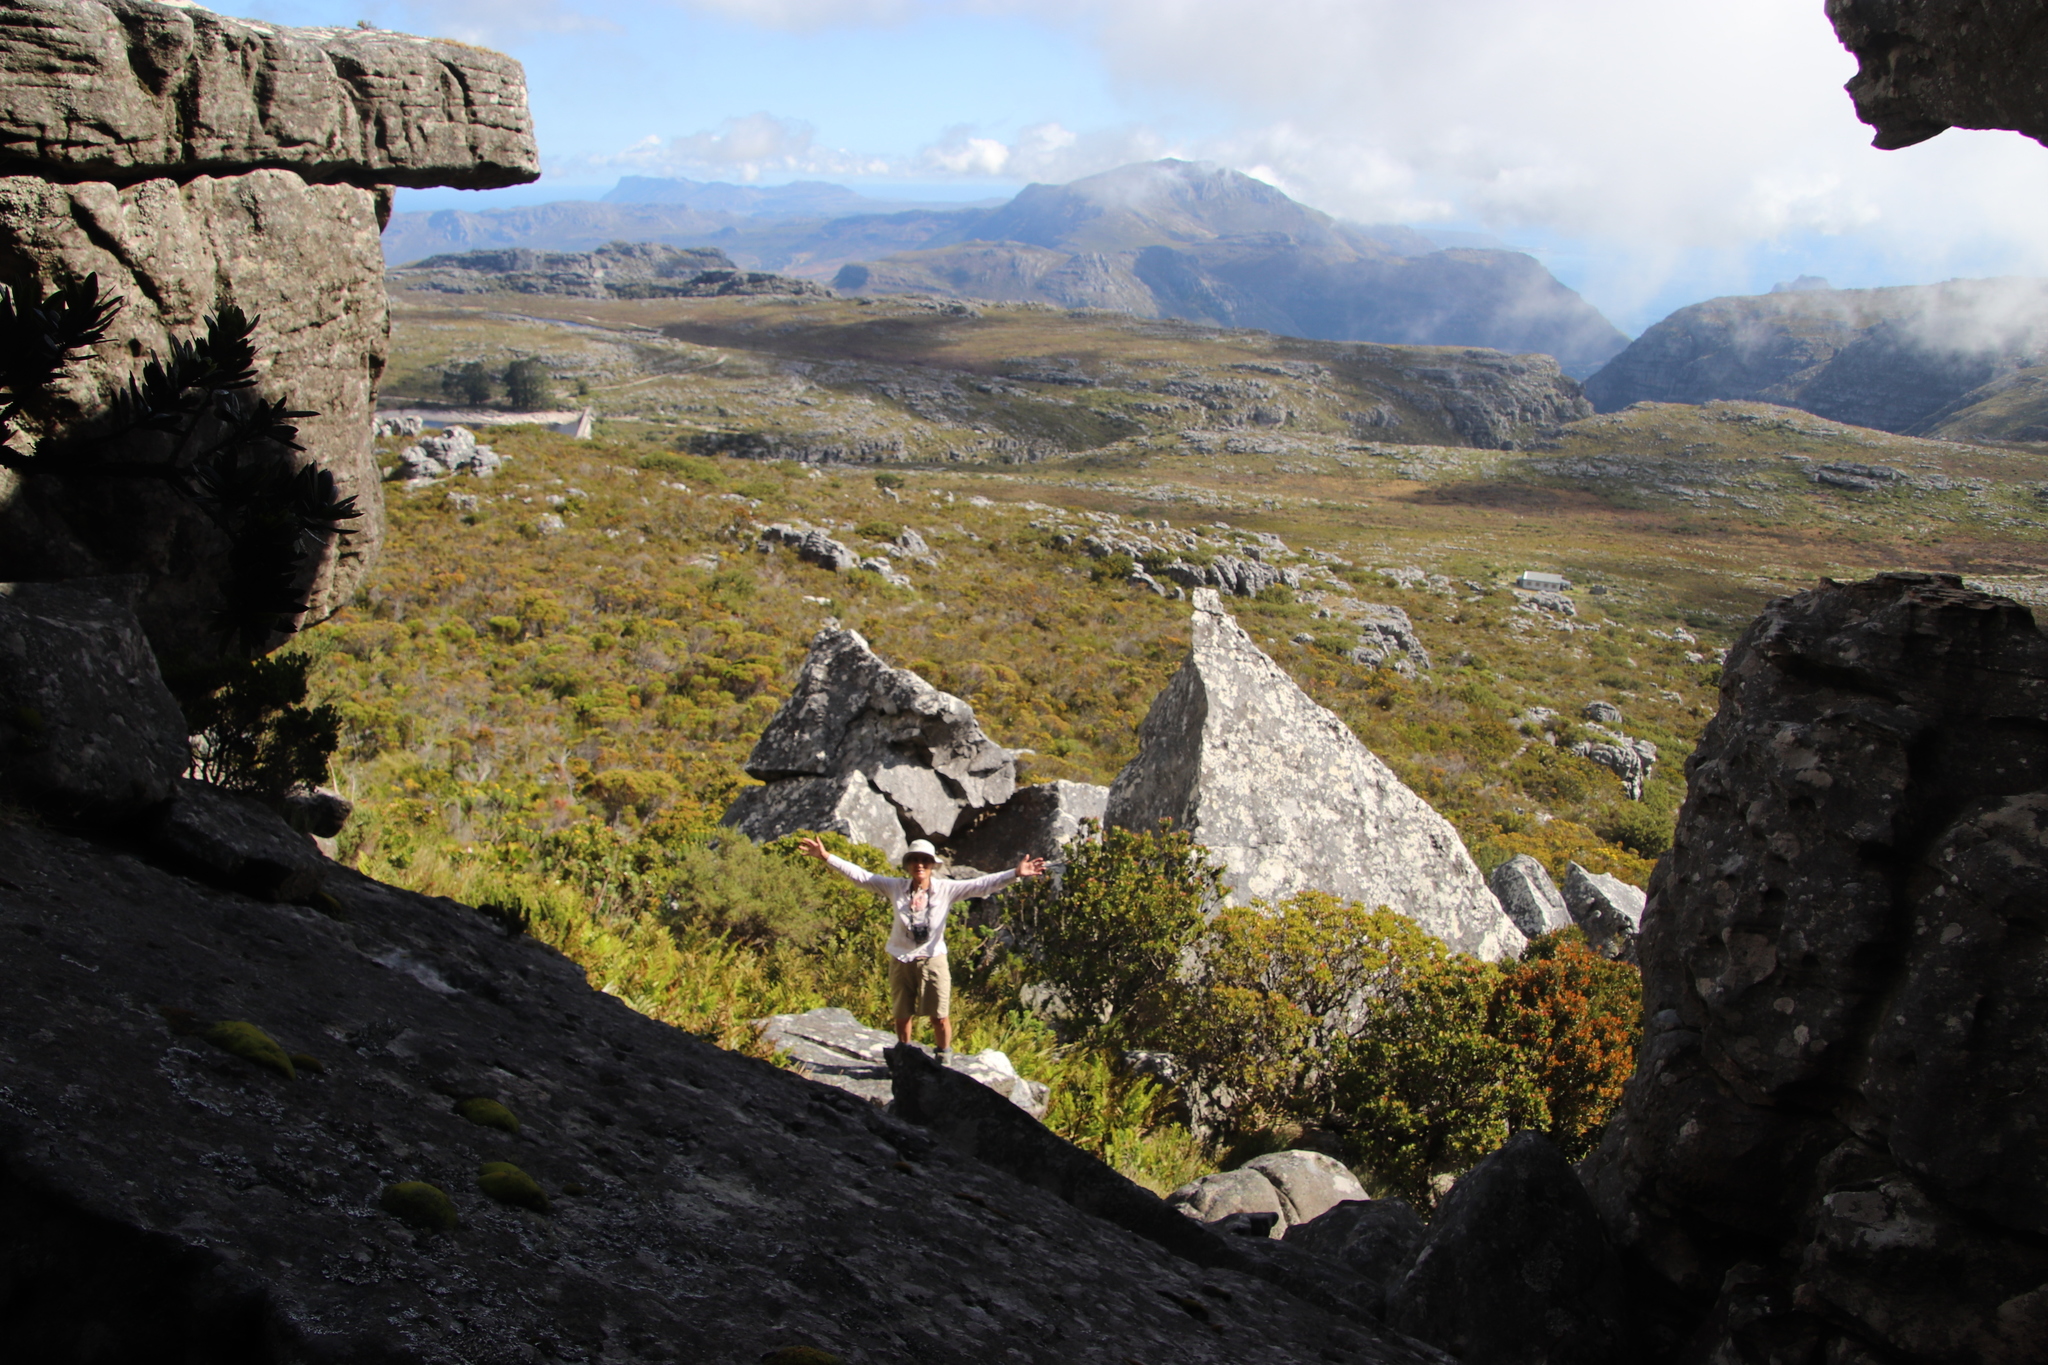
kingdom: Plantae
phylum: Tracheophyta
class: Magnoliopsida
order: Proteales
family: Proteaceae
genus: Leucadendron
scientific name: Leucadendron strobilinum
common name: Mountain rose
